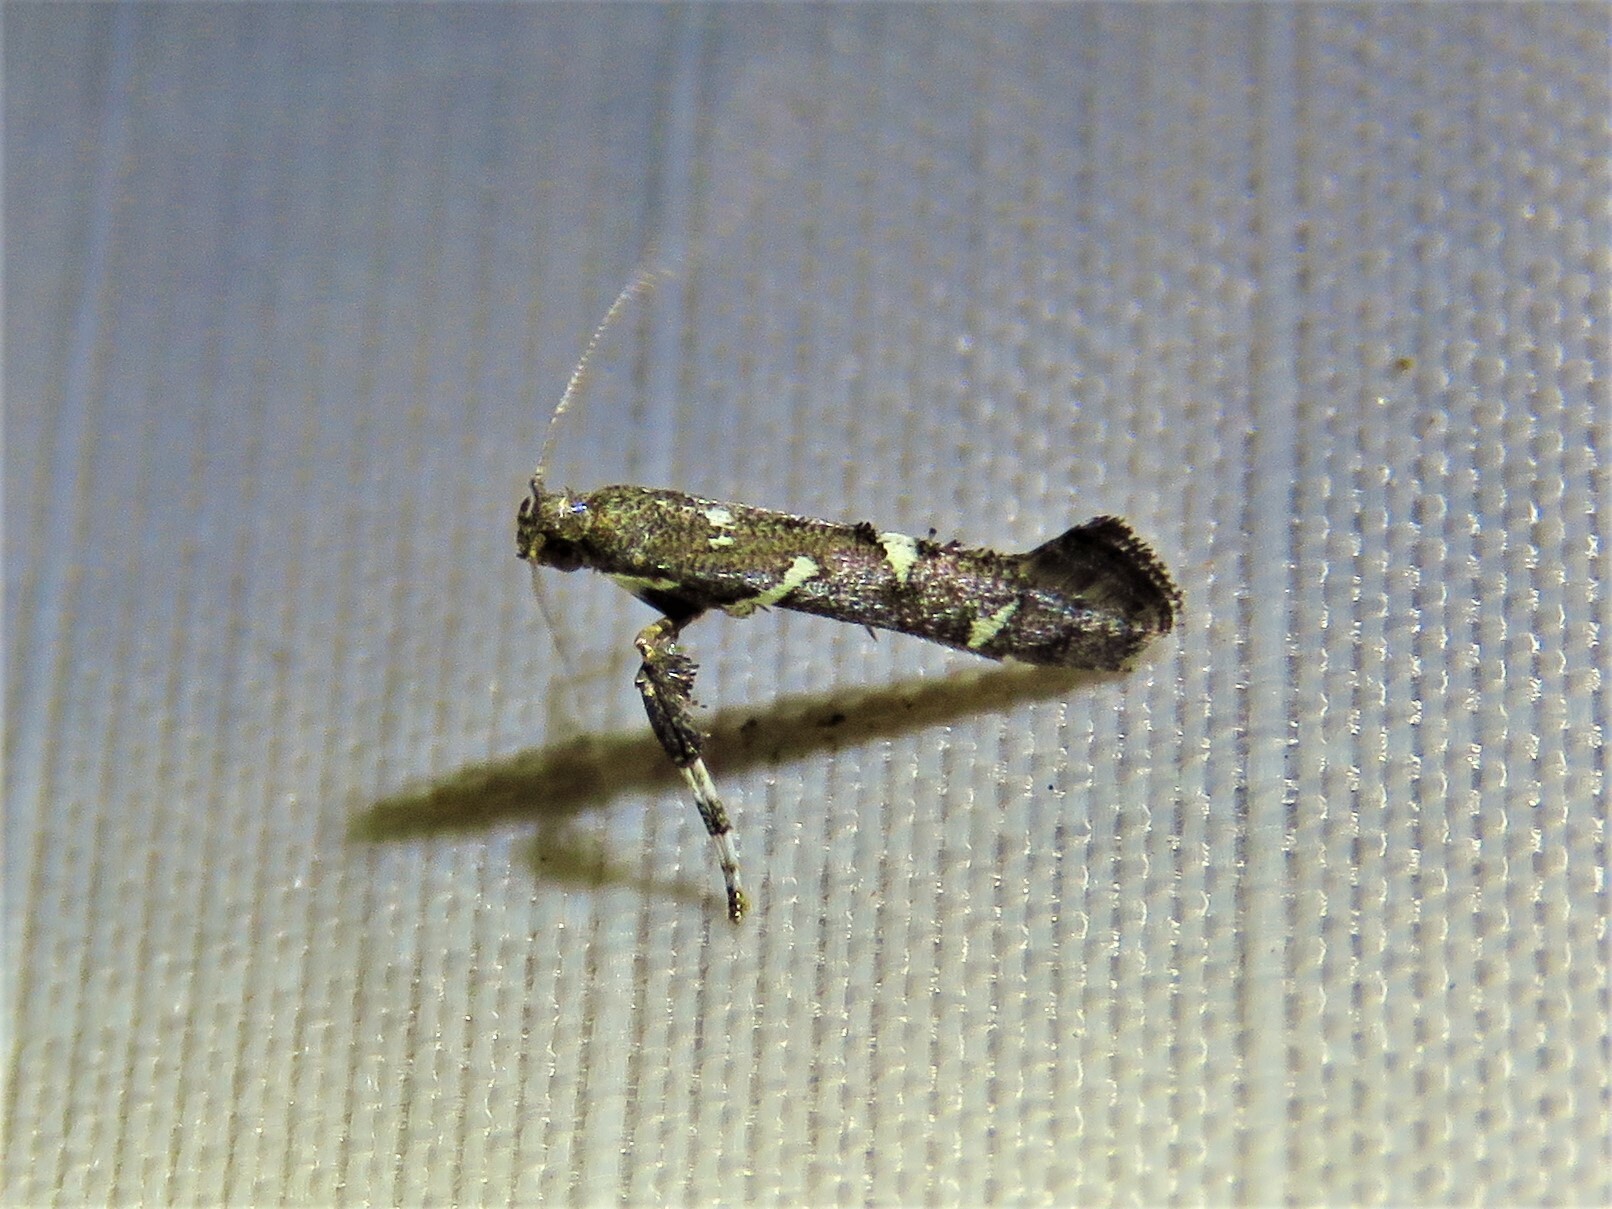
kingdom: Animalia
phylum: Arthropoda
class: Insecta
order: Lepidoptera
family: Gracillariidae
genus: Caloptilia
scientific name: Caloptilia triadicae
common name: Tallow leaf roller
